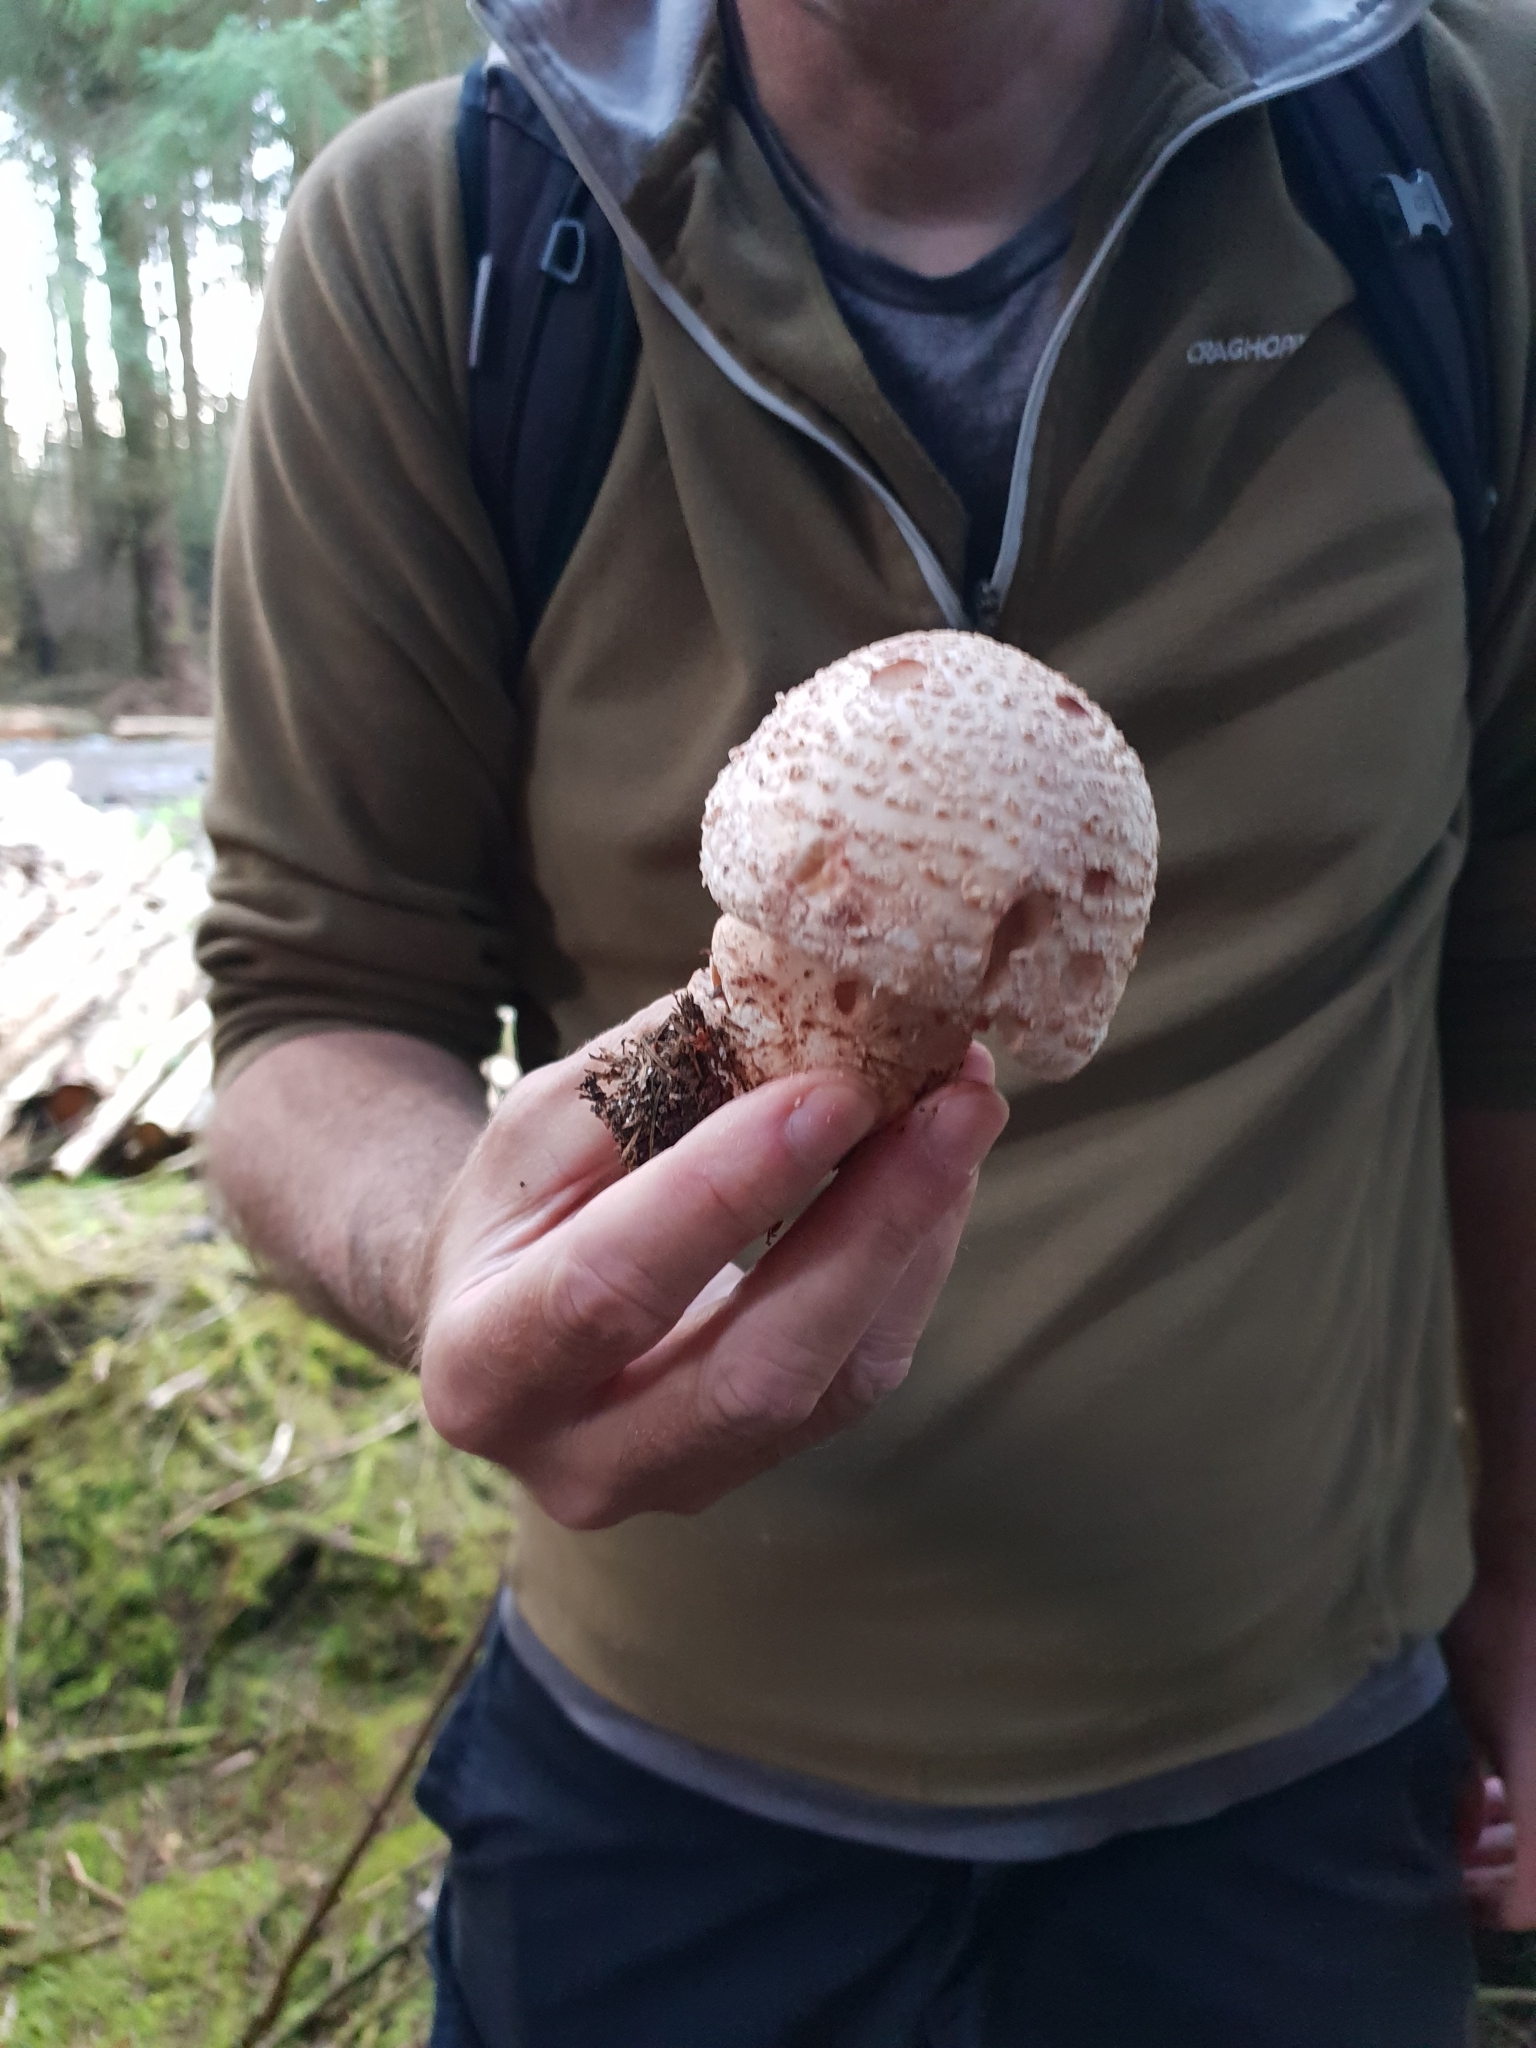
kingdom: Fungi
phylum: Basidiomycota
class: Agaricomycetes
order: Agaricales
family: Amanitaceae
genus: Amanita
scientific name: Amanita rubescens
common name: Blusher
